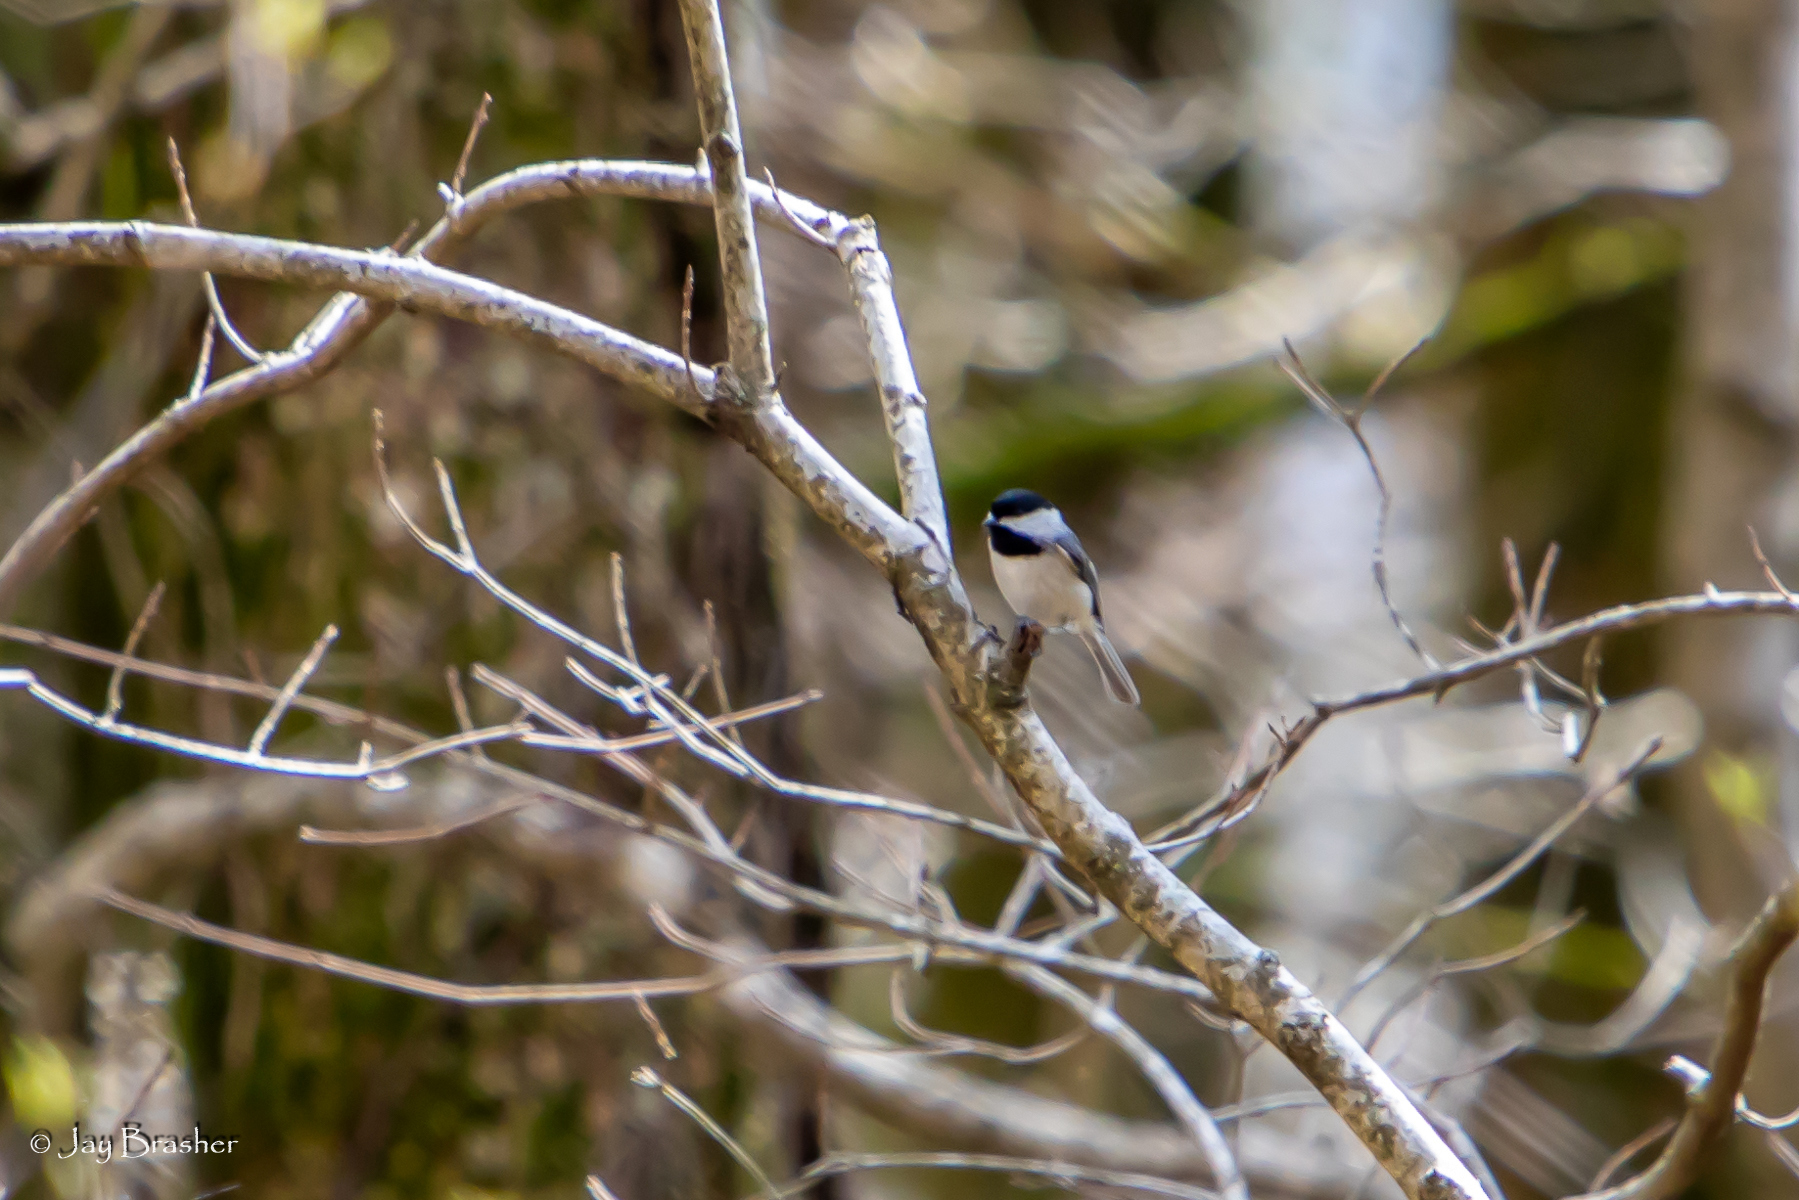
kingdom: Animalia
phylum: Chordata
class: Aves
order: Passeriformes
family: Paridae
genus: Poecile
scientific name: Poecile carolinensis
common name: Carolina chickadee
